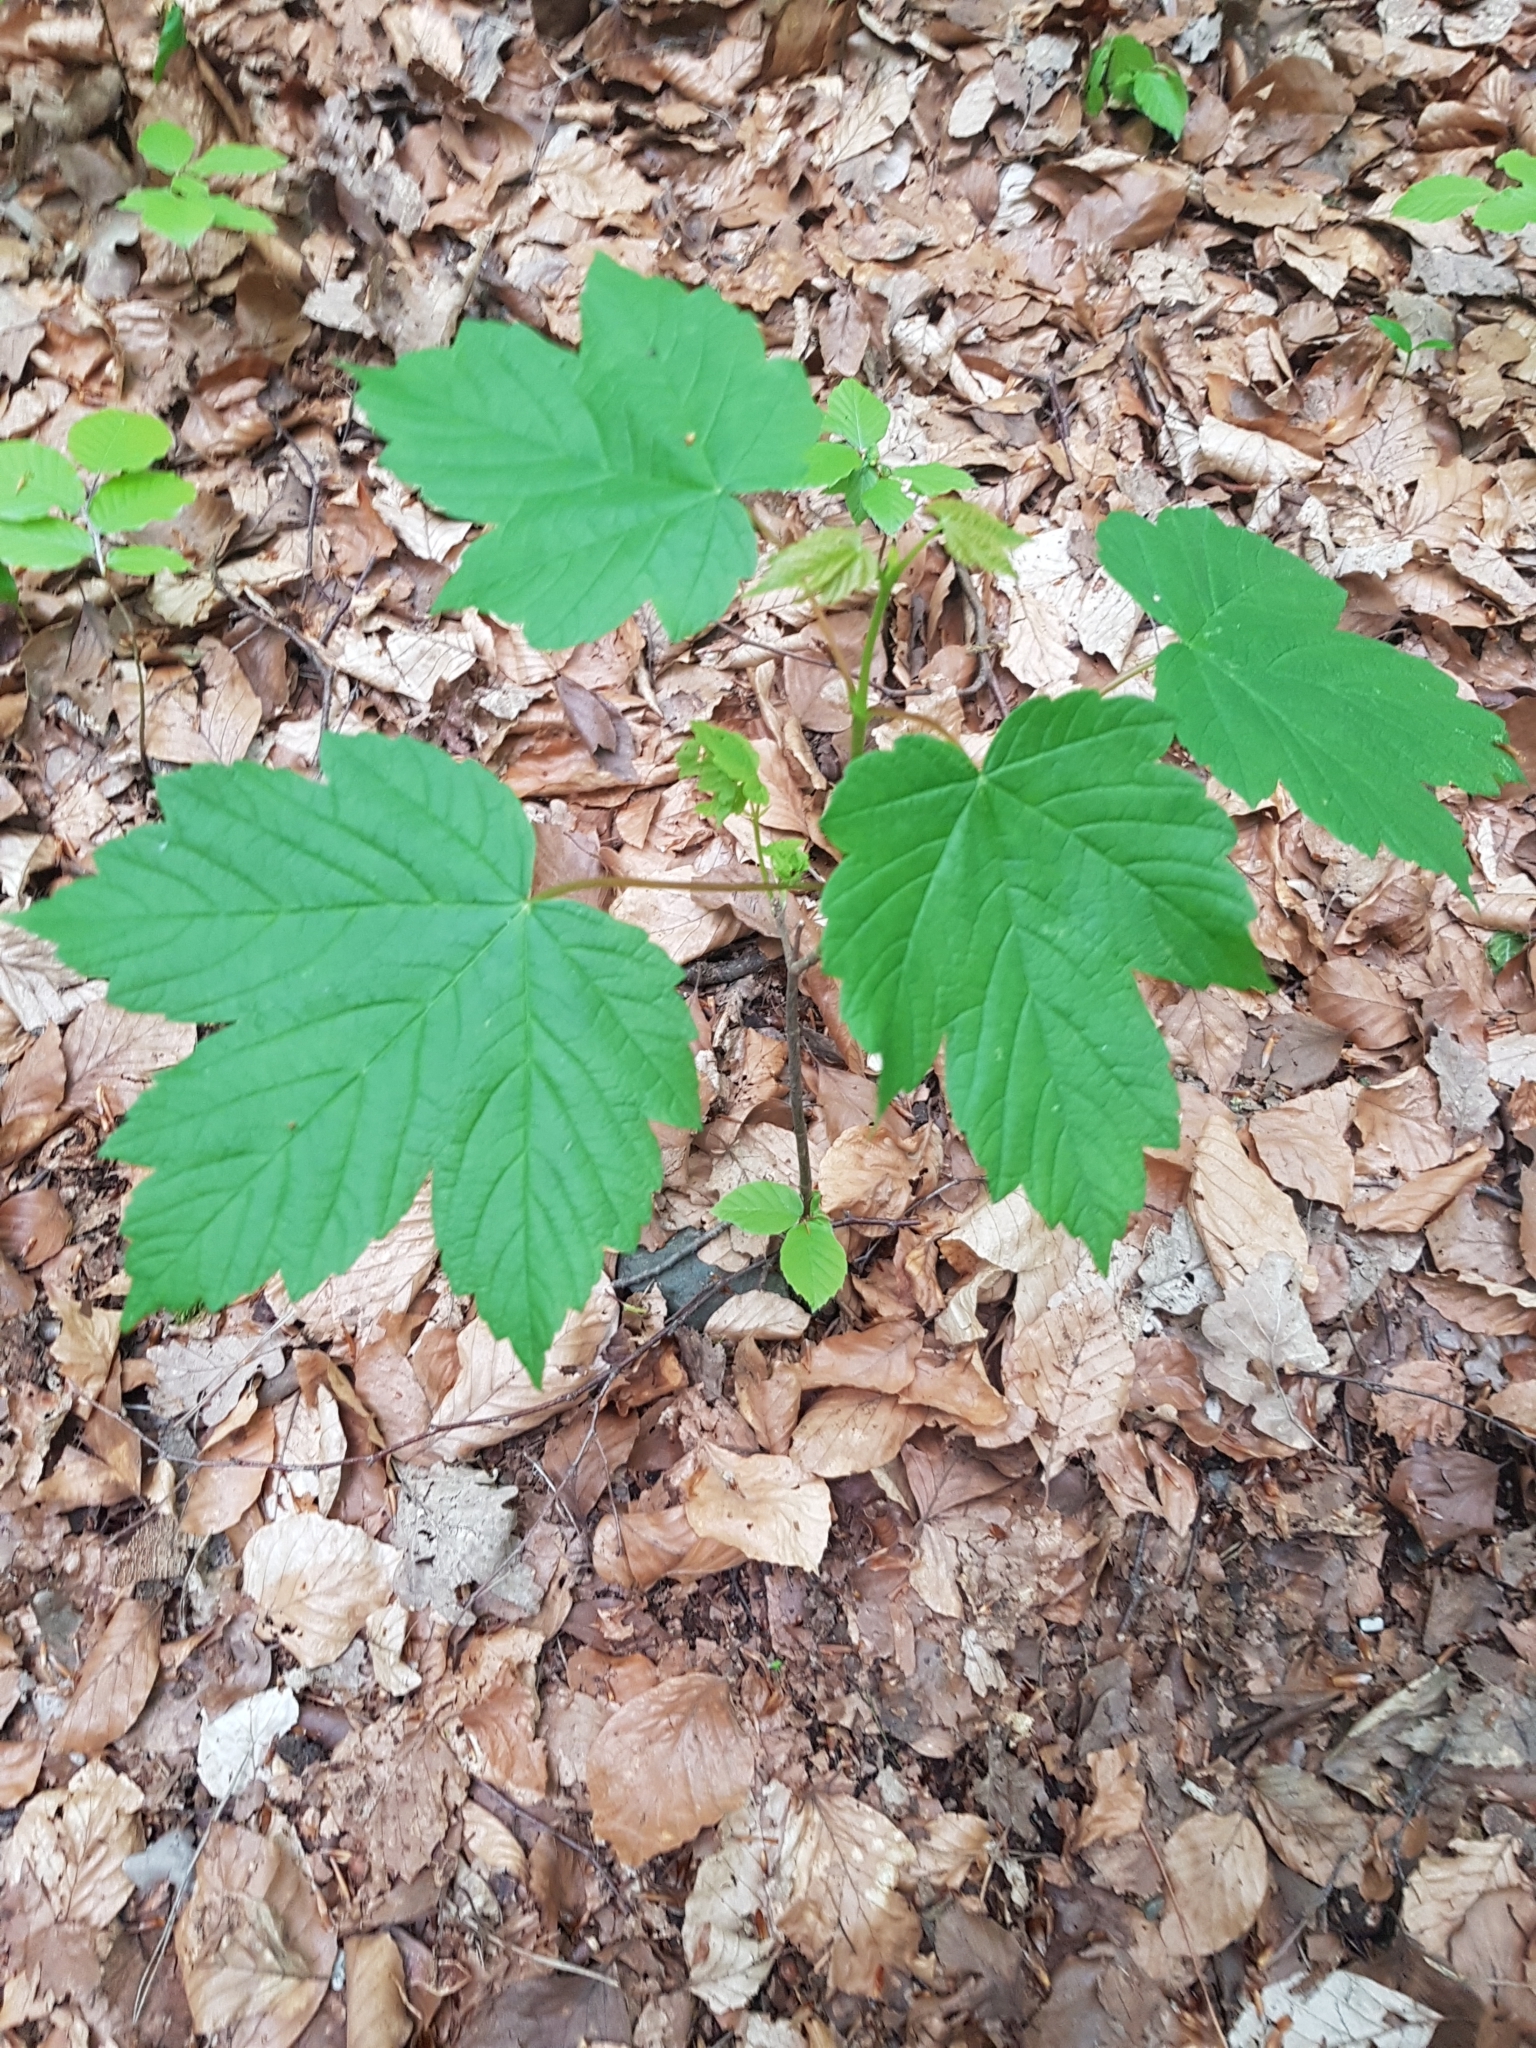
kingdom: Plantae
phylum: Tracheophyta
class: Magnoliopsida
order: Sapindales
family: Sapindaceae
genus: Acer
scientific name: Acer pseudoplatanus
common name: Sycamore
